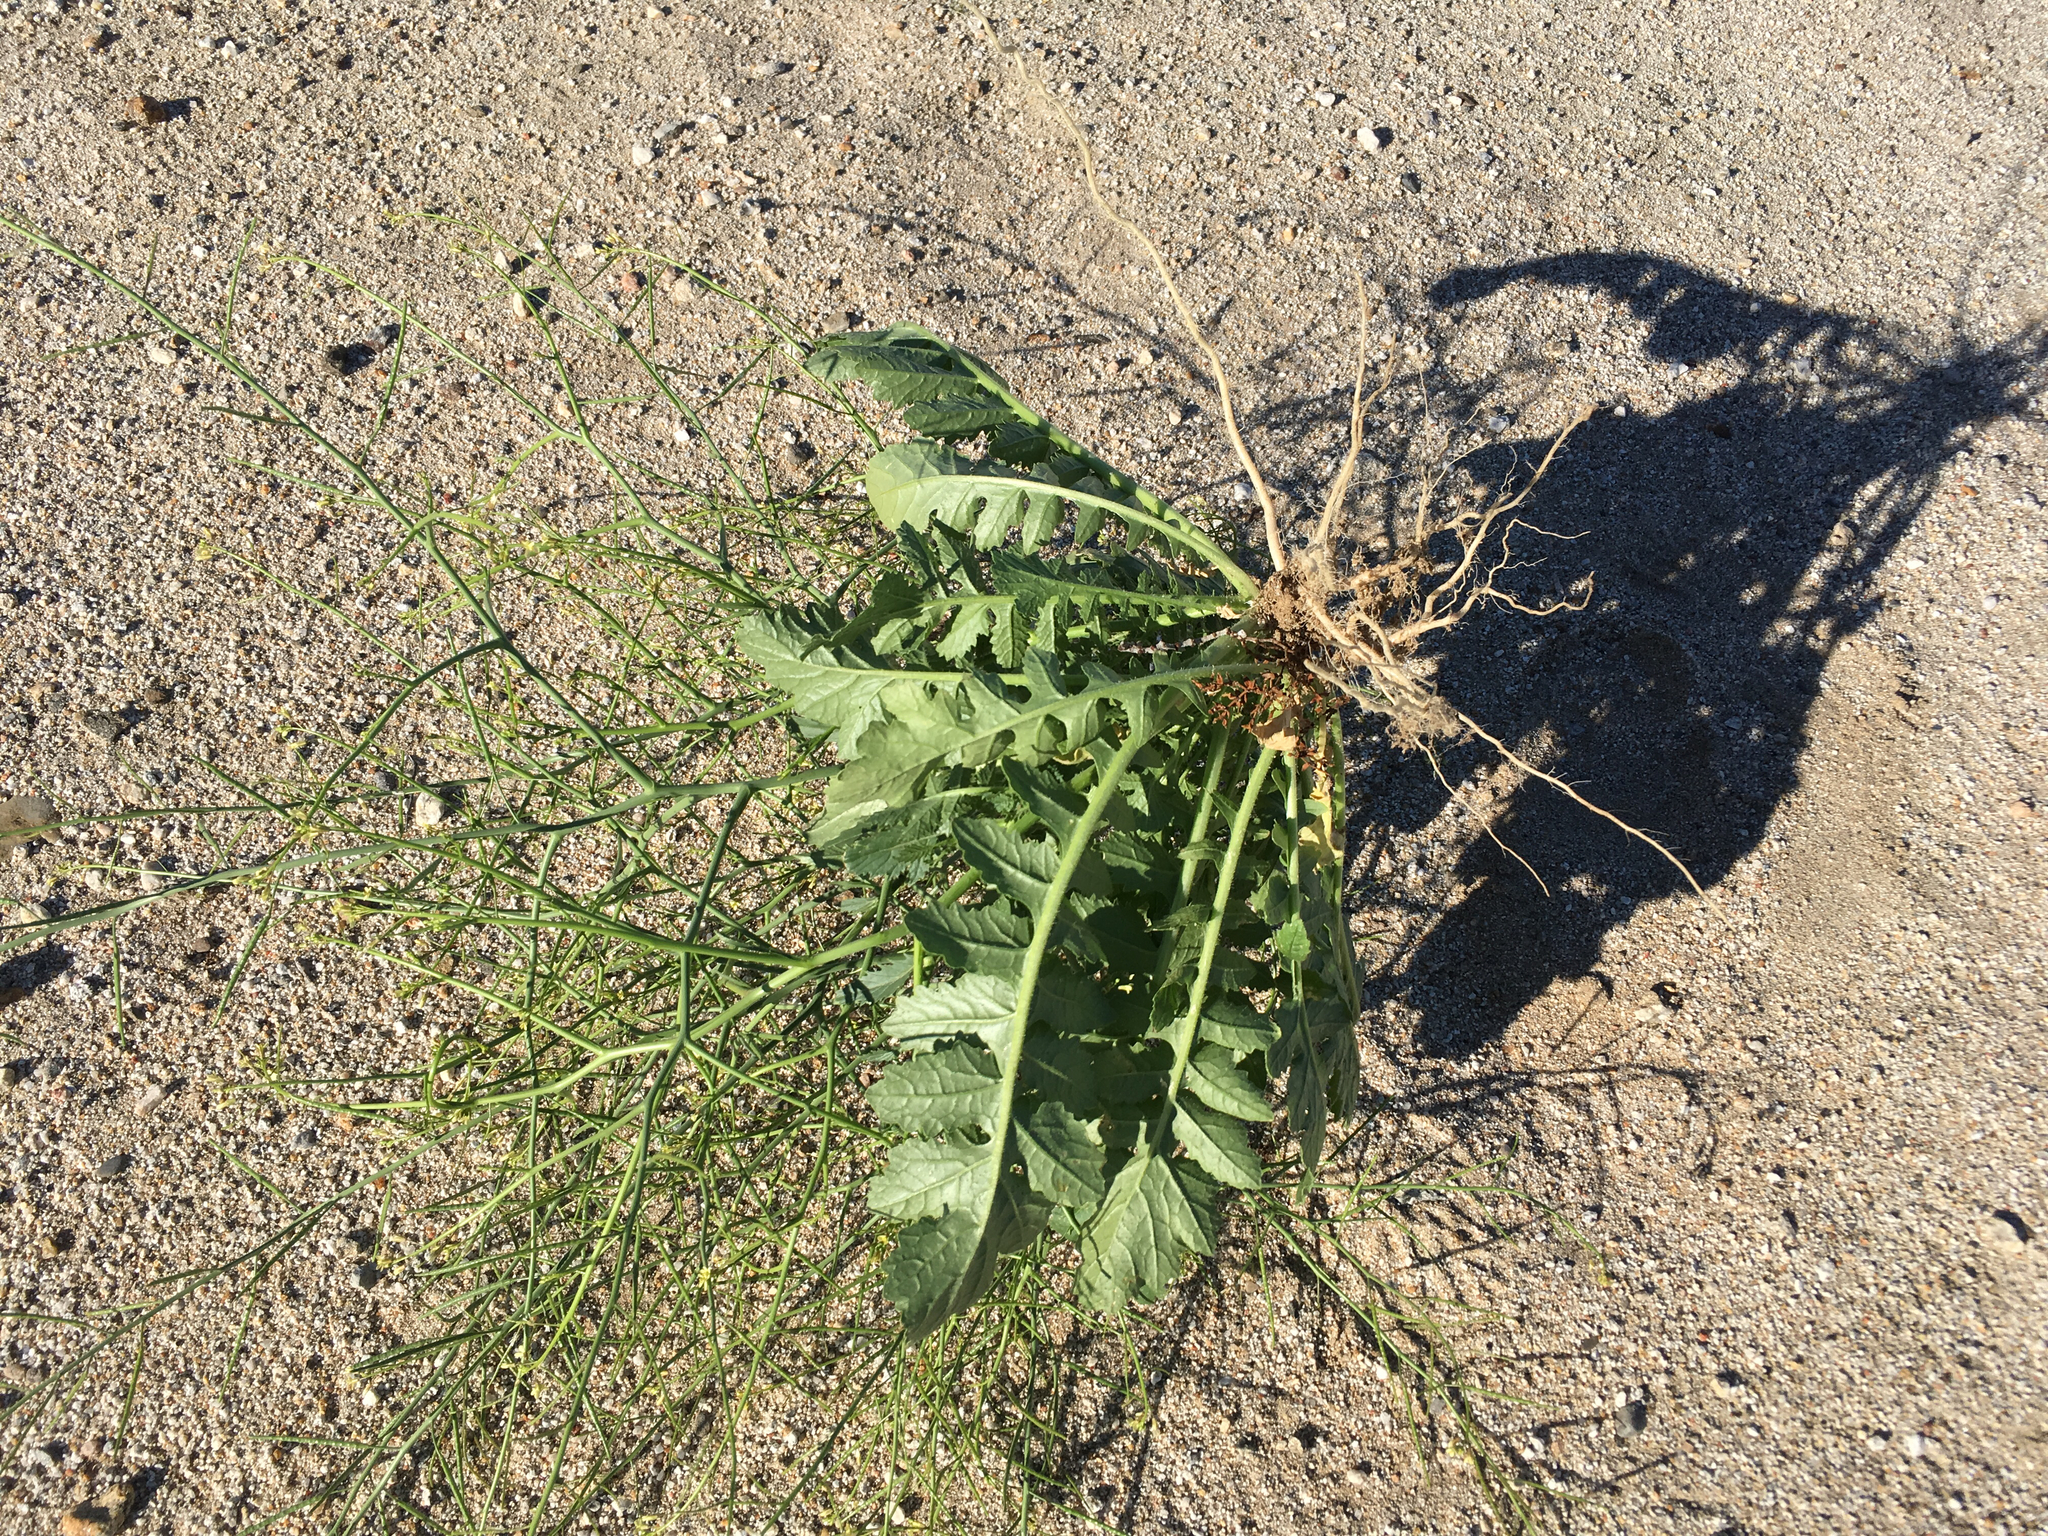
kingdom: Plantae
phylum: Tracheophyta
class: Magnoliopsida
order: Brassicales
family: Brassicaceae
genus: Brassica
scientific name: Brassica tournefortii
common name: Pale cabbage
